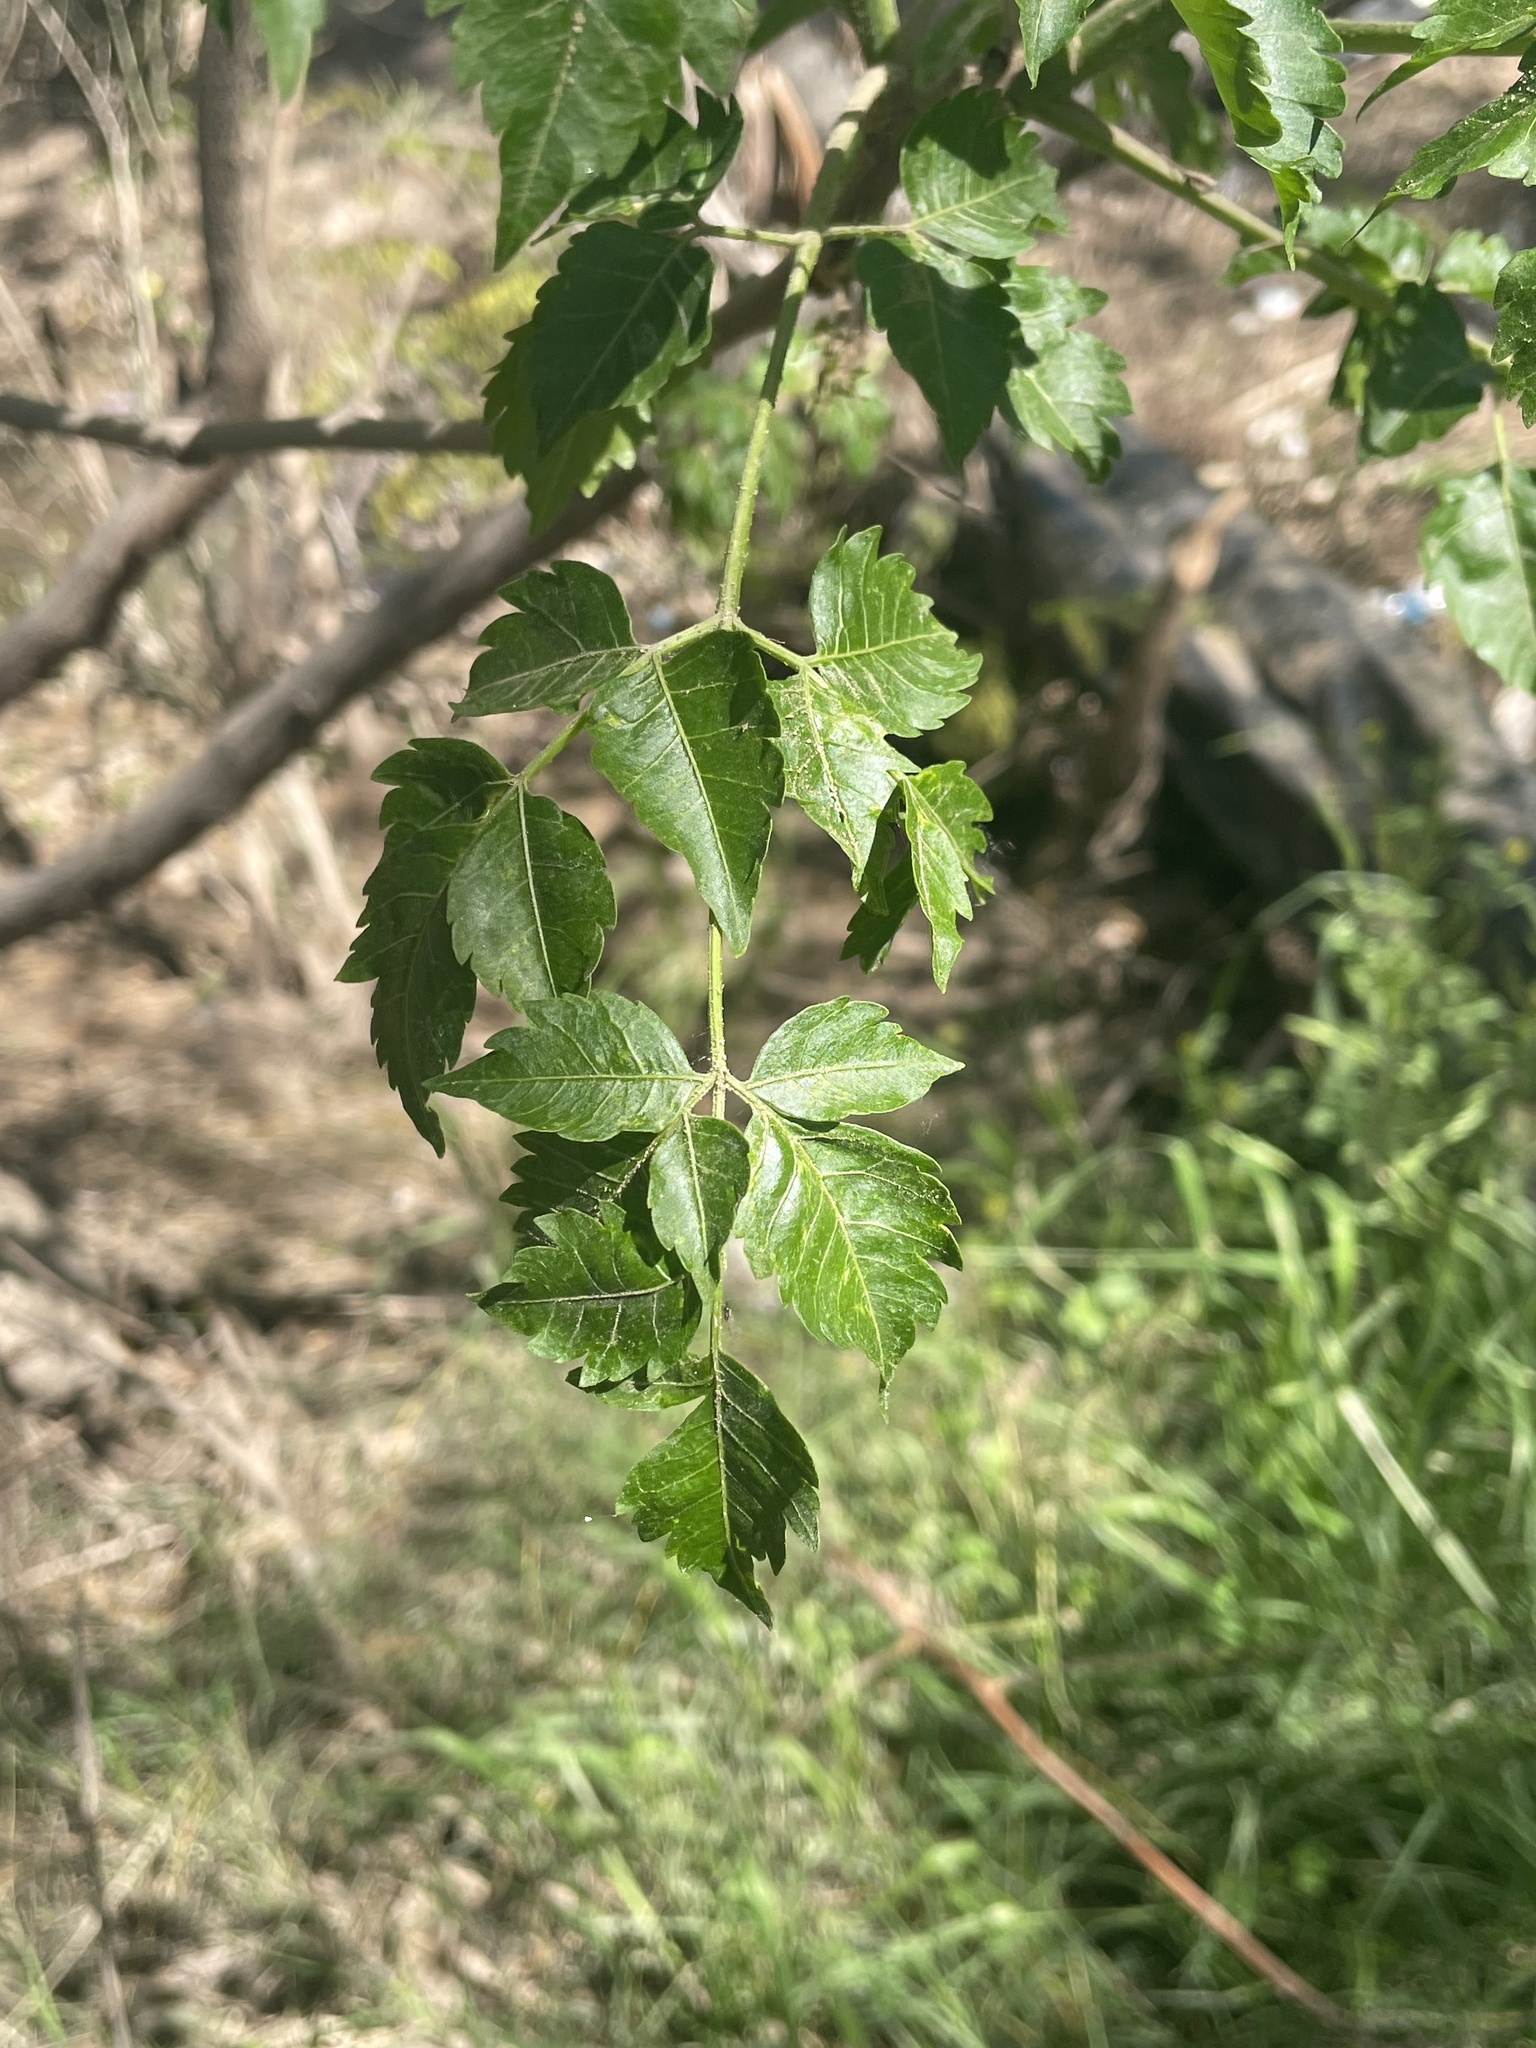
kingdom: Plantae
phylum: Tracheophyta
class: Magnoliopsida
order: Sapindales
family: Meliaceae
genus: Melia
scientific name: Melia azedarach
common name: Chinaberrytree
